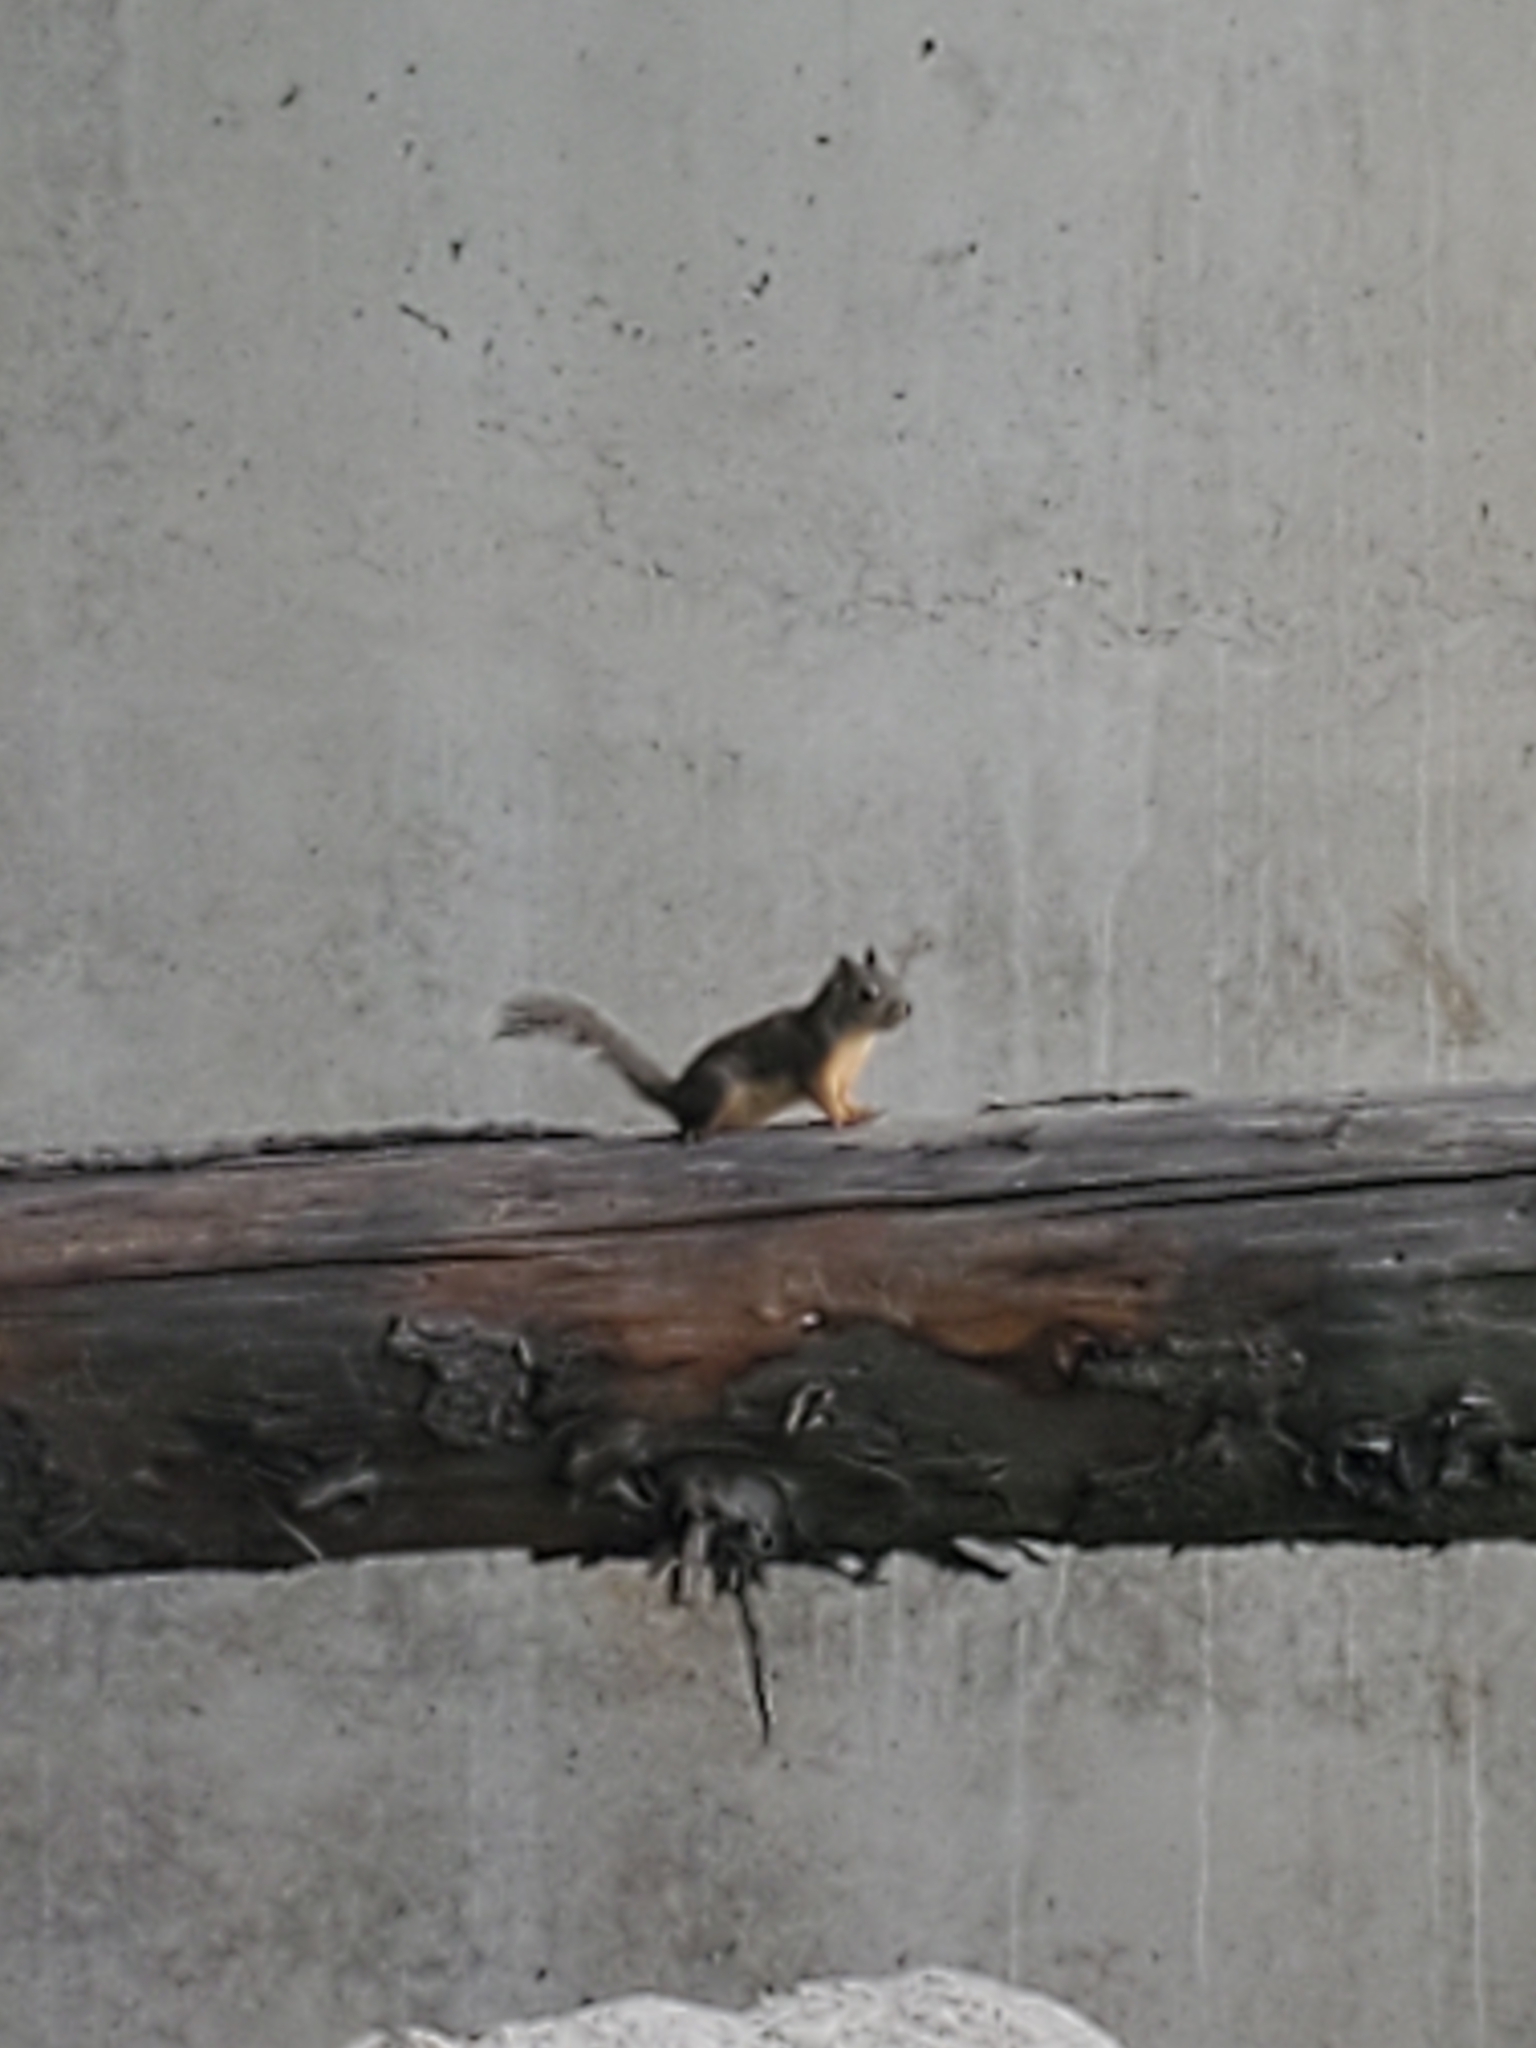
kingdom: Animalia
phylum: Chordata
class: Mammalia
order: Rodentia
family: Sciuridae
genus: Tamiasciurus
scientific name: Tamiasciurus douglasii
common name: Douglas's squirrel
